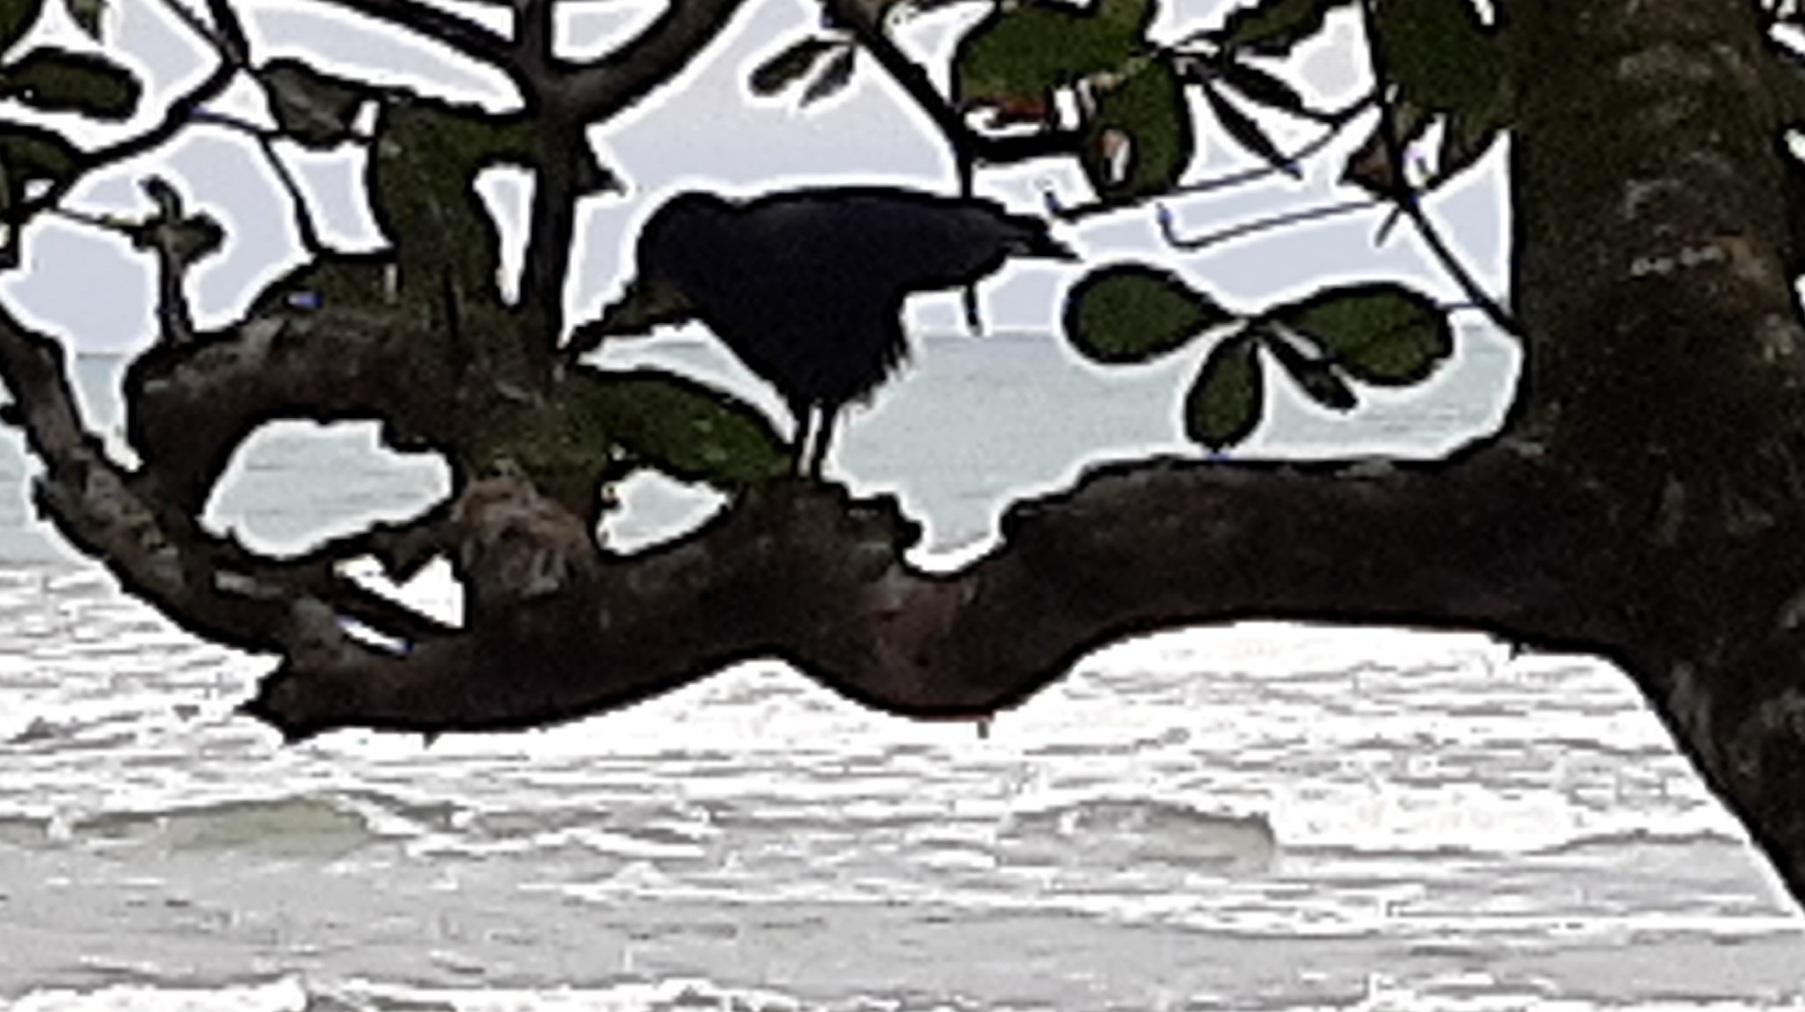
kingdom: Animalia
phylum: Chordata
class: Aves
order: Accipitriformes
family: Accipitridae
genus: Buteogallus
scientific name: Buteogallus anthracinus
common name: Common black hawk
